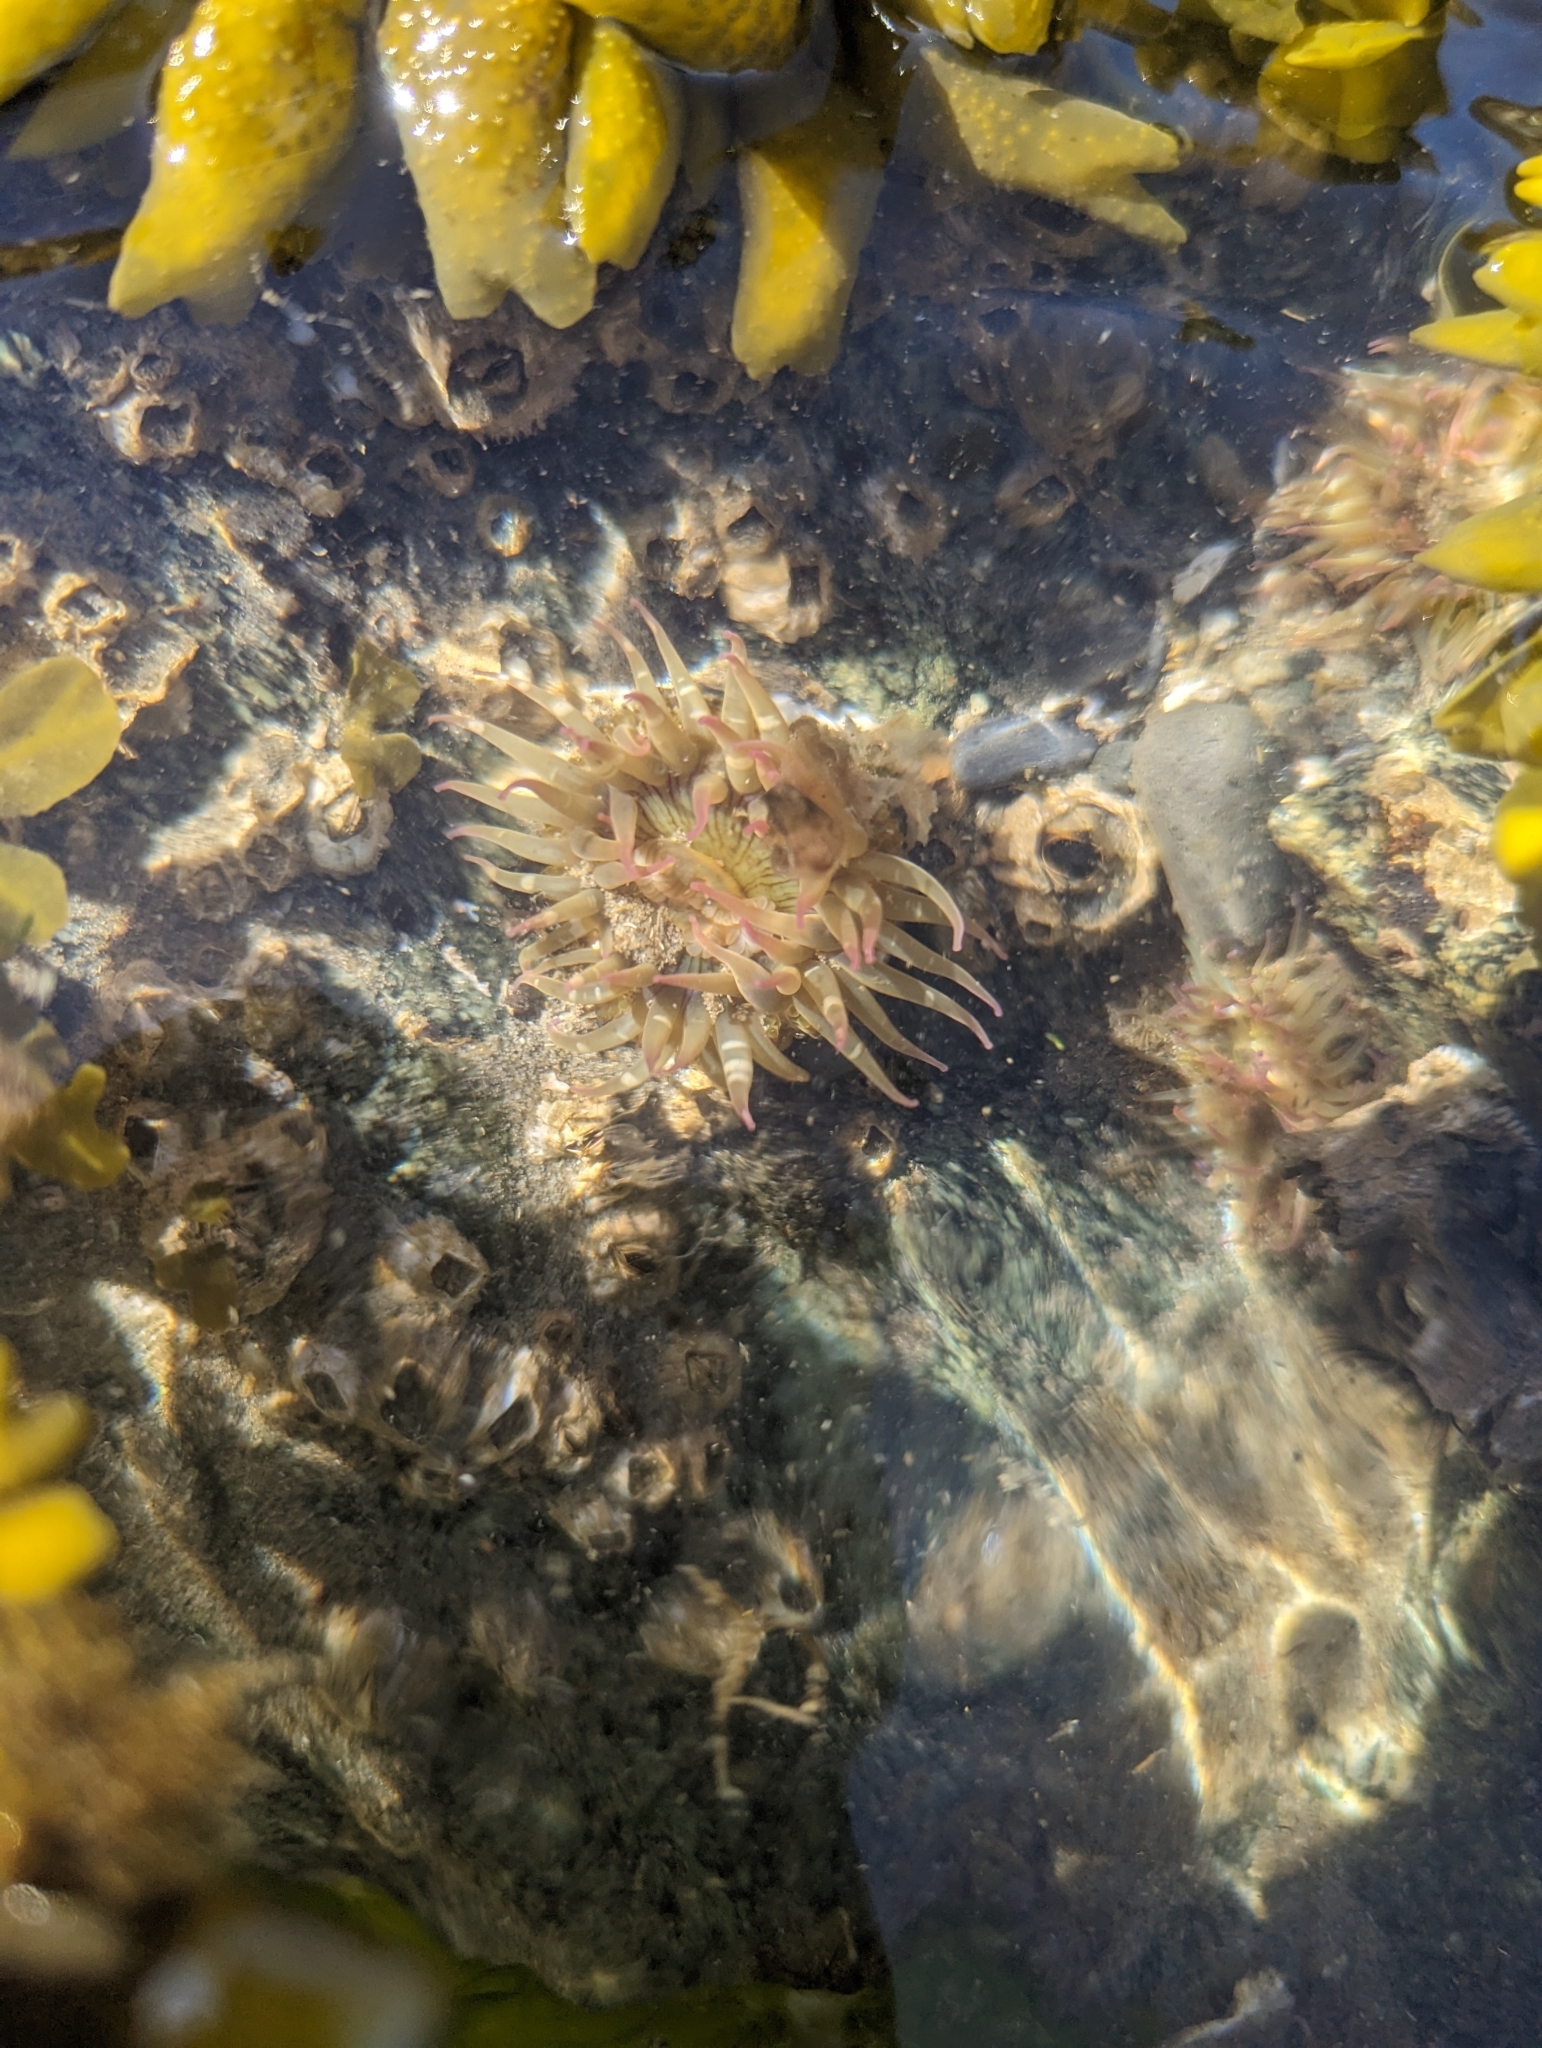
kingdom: Animalia
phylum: Cnidaria
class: Anthozoa
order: Actiniaria
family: Actiniidae
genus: Anthopleura
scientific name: Anthopleura elegantissima
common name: Clonal anemone
